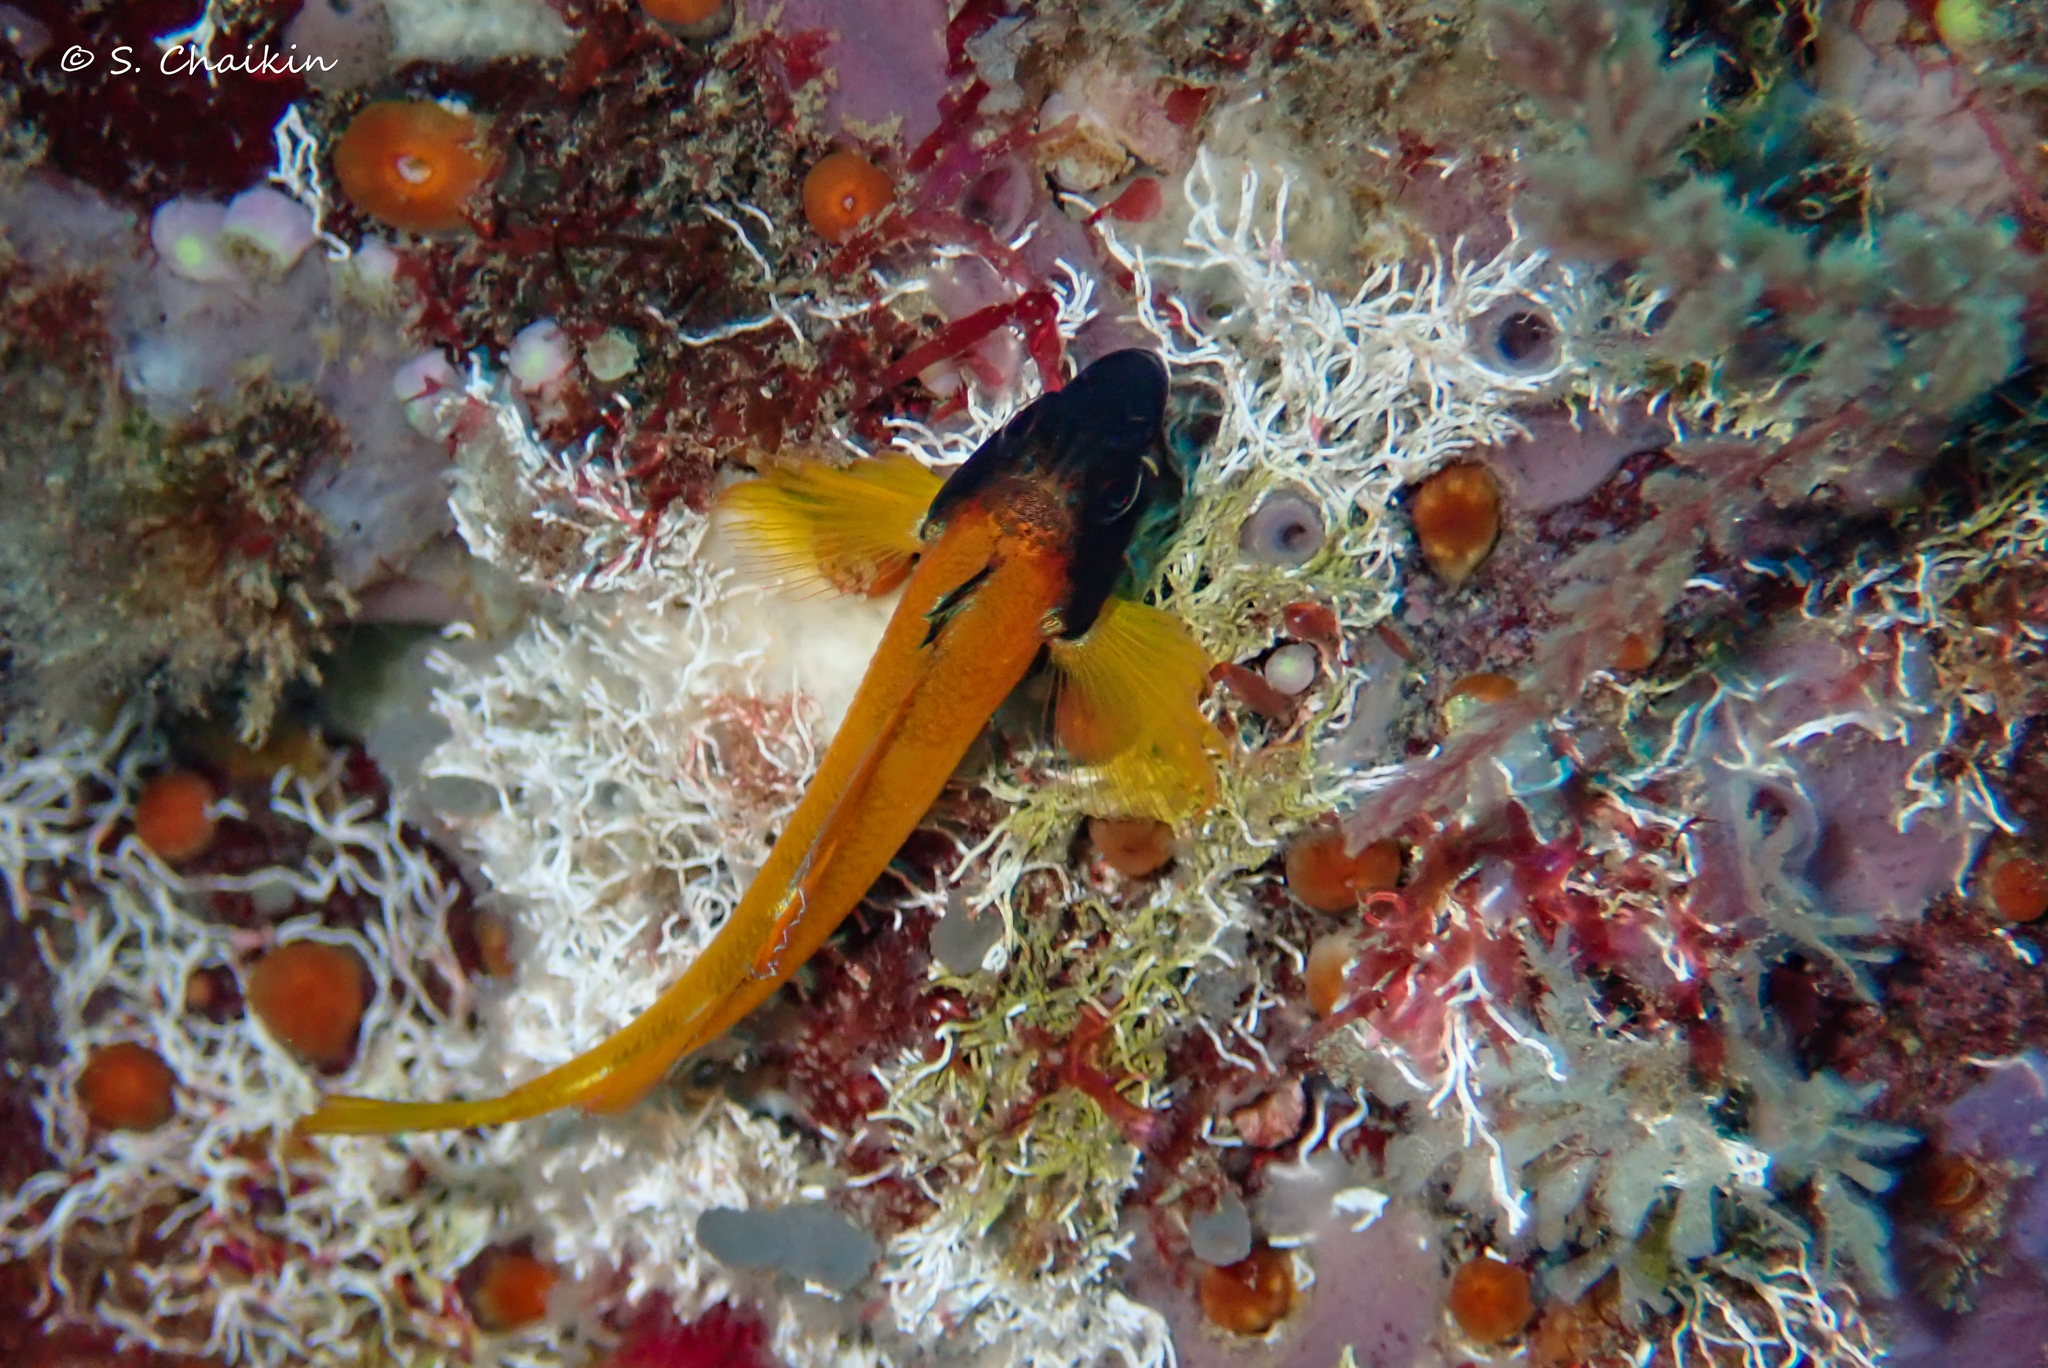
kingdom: Animalia
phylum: Chordata
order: Perciformes
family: Tripterygiidae
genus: Tripterygion
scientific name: Tripterygion delaisi
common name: Black-face blenny
